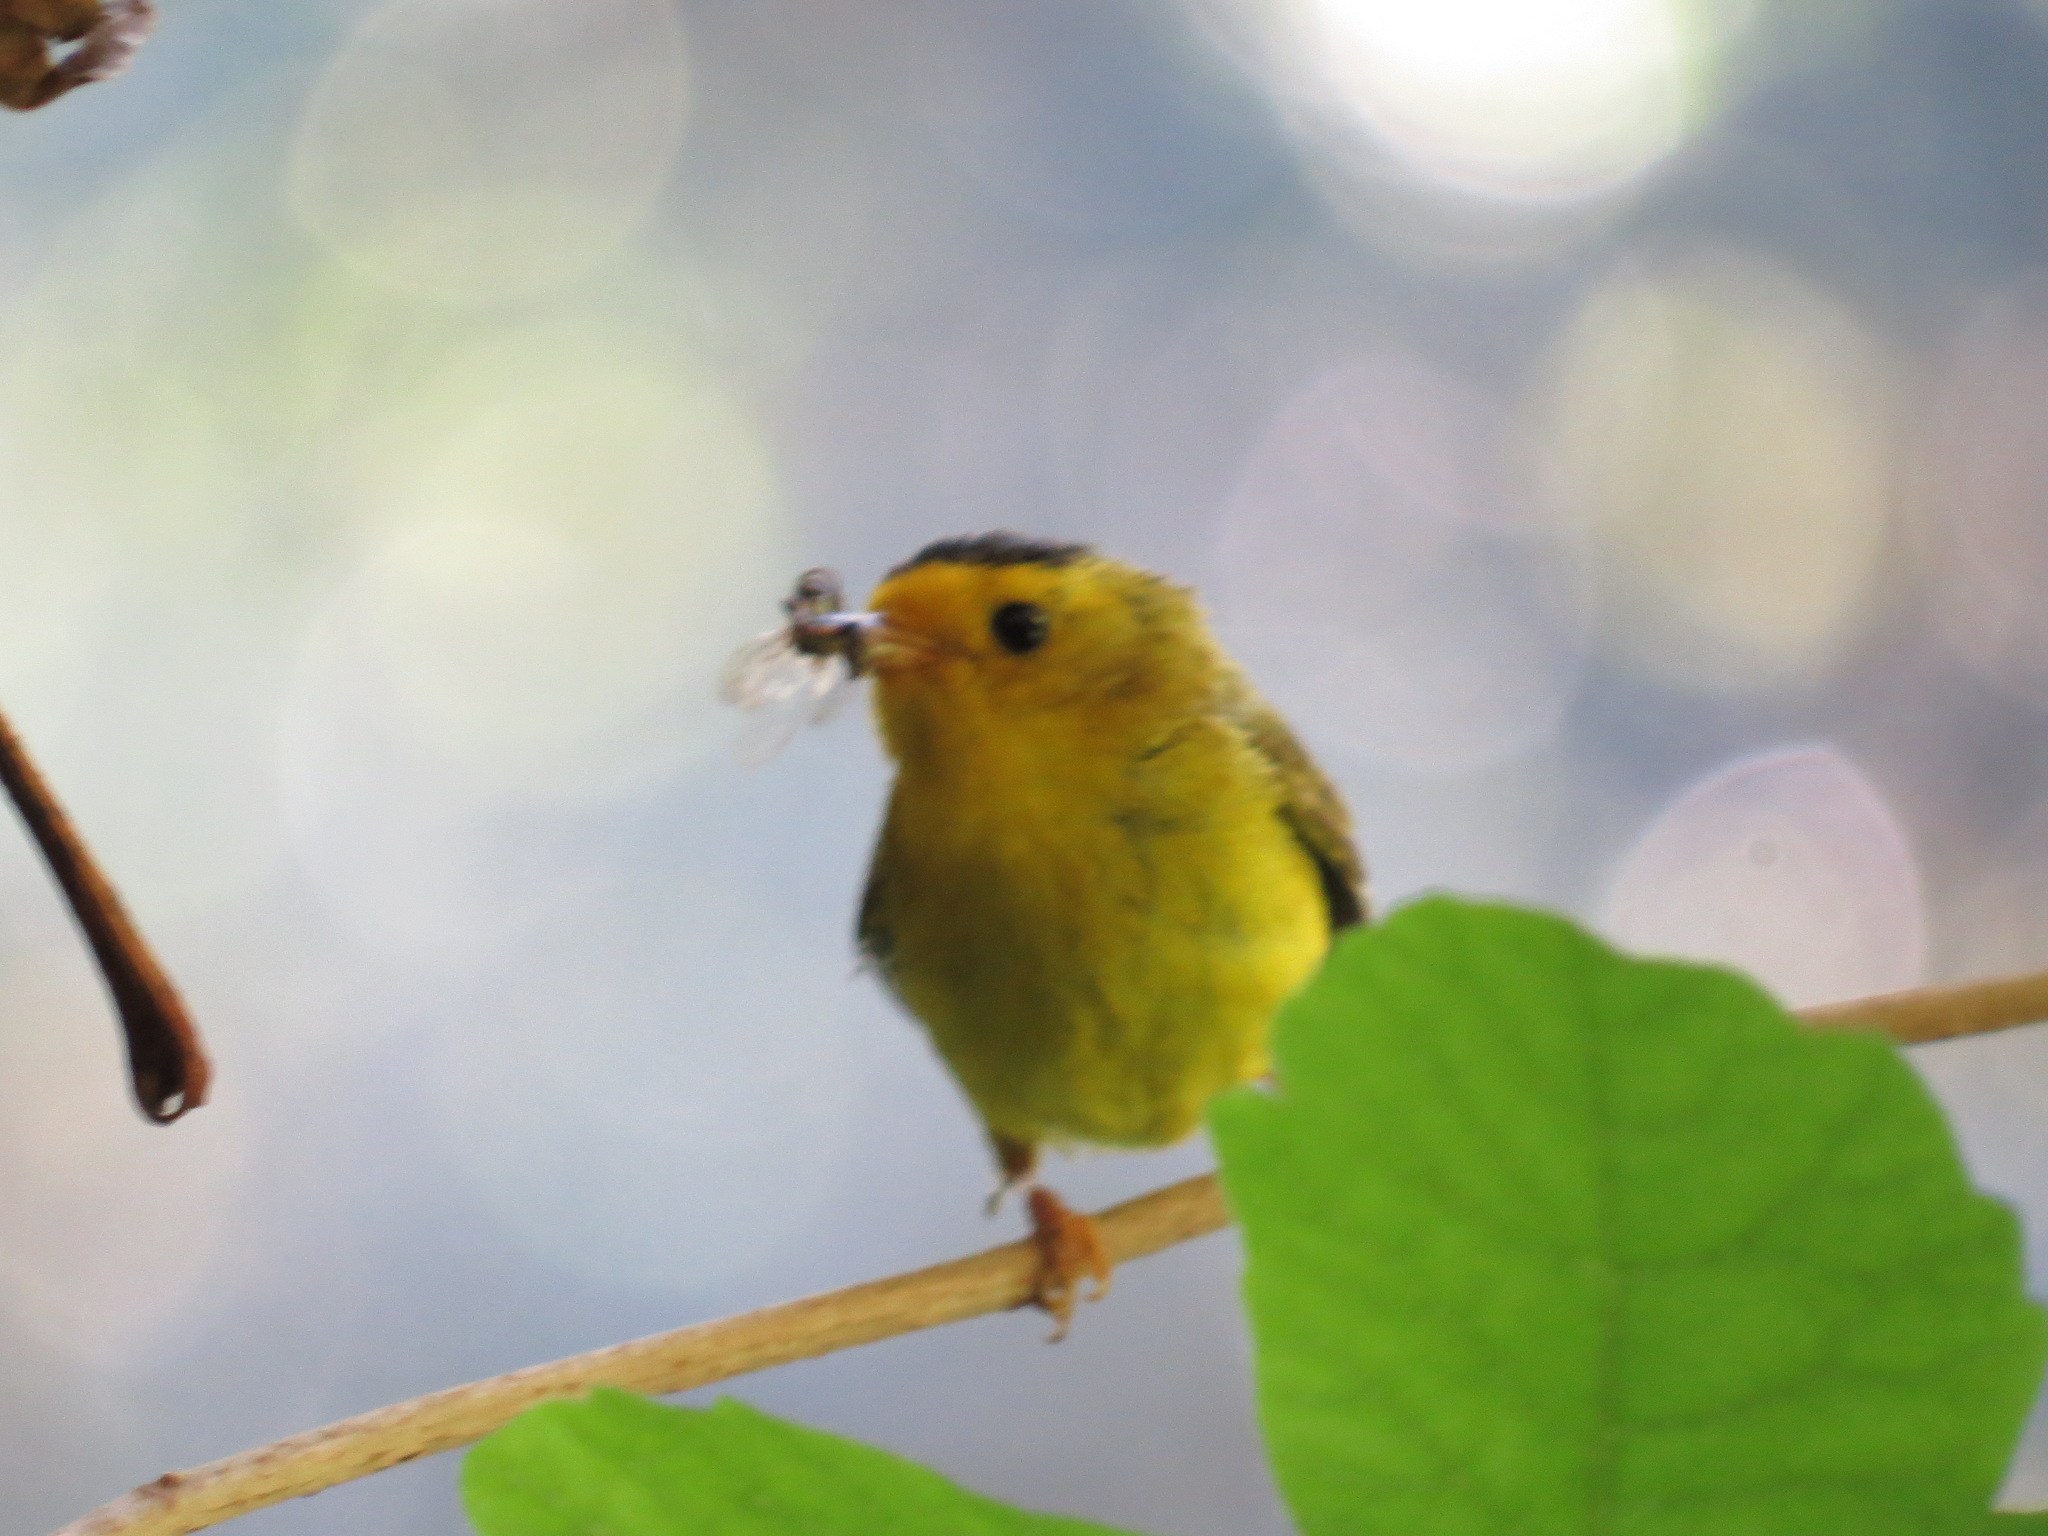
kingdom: Animalia
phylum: Chordata
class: Aves
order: Passeriformes
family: Parulidae
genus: Cardellina
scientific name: Cardellina pusilla
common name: Wilson's warbler
